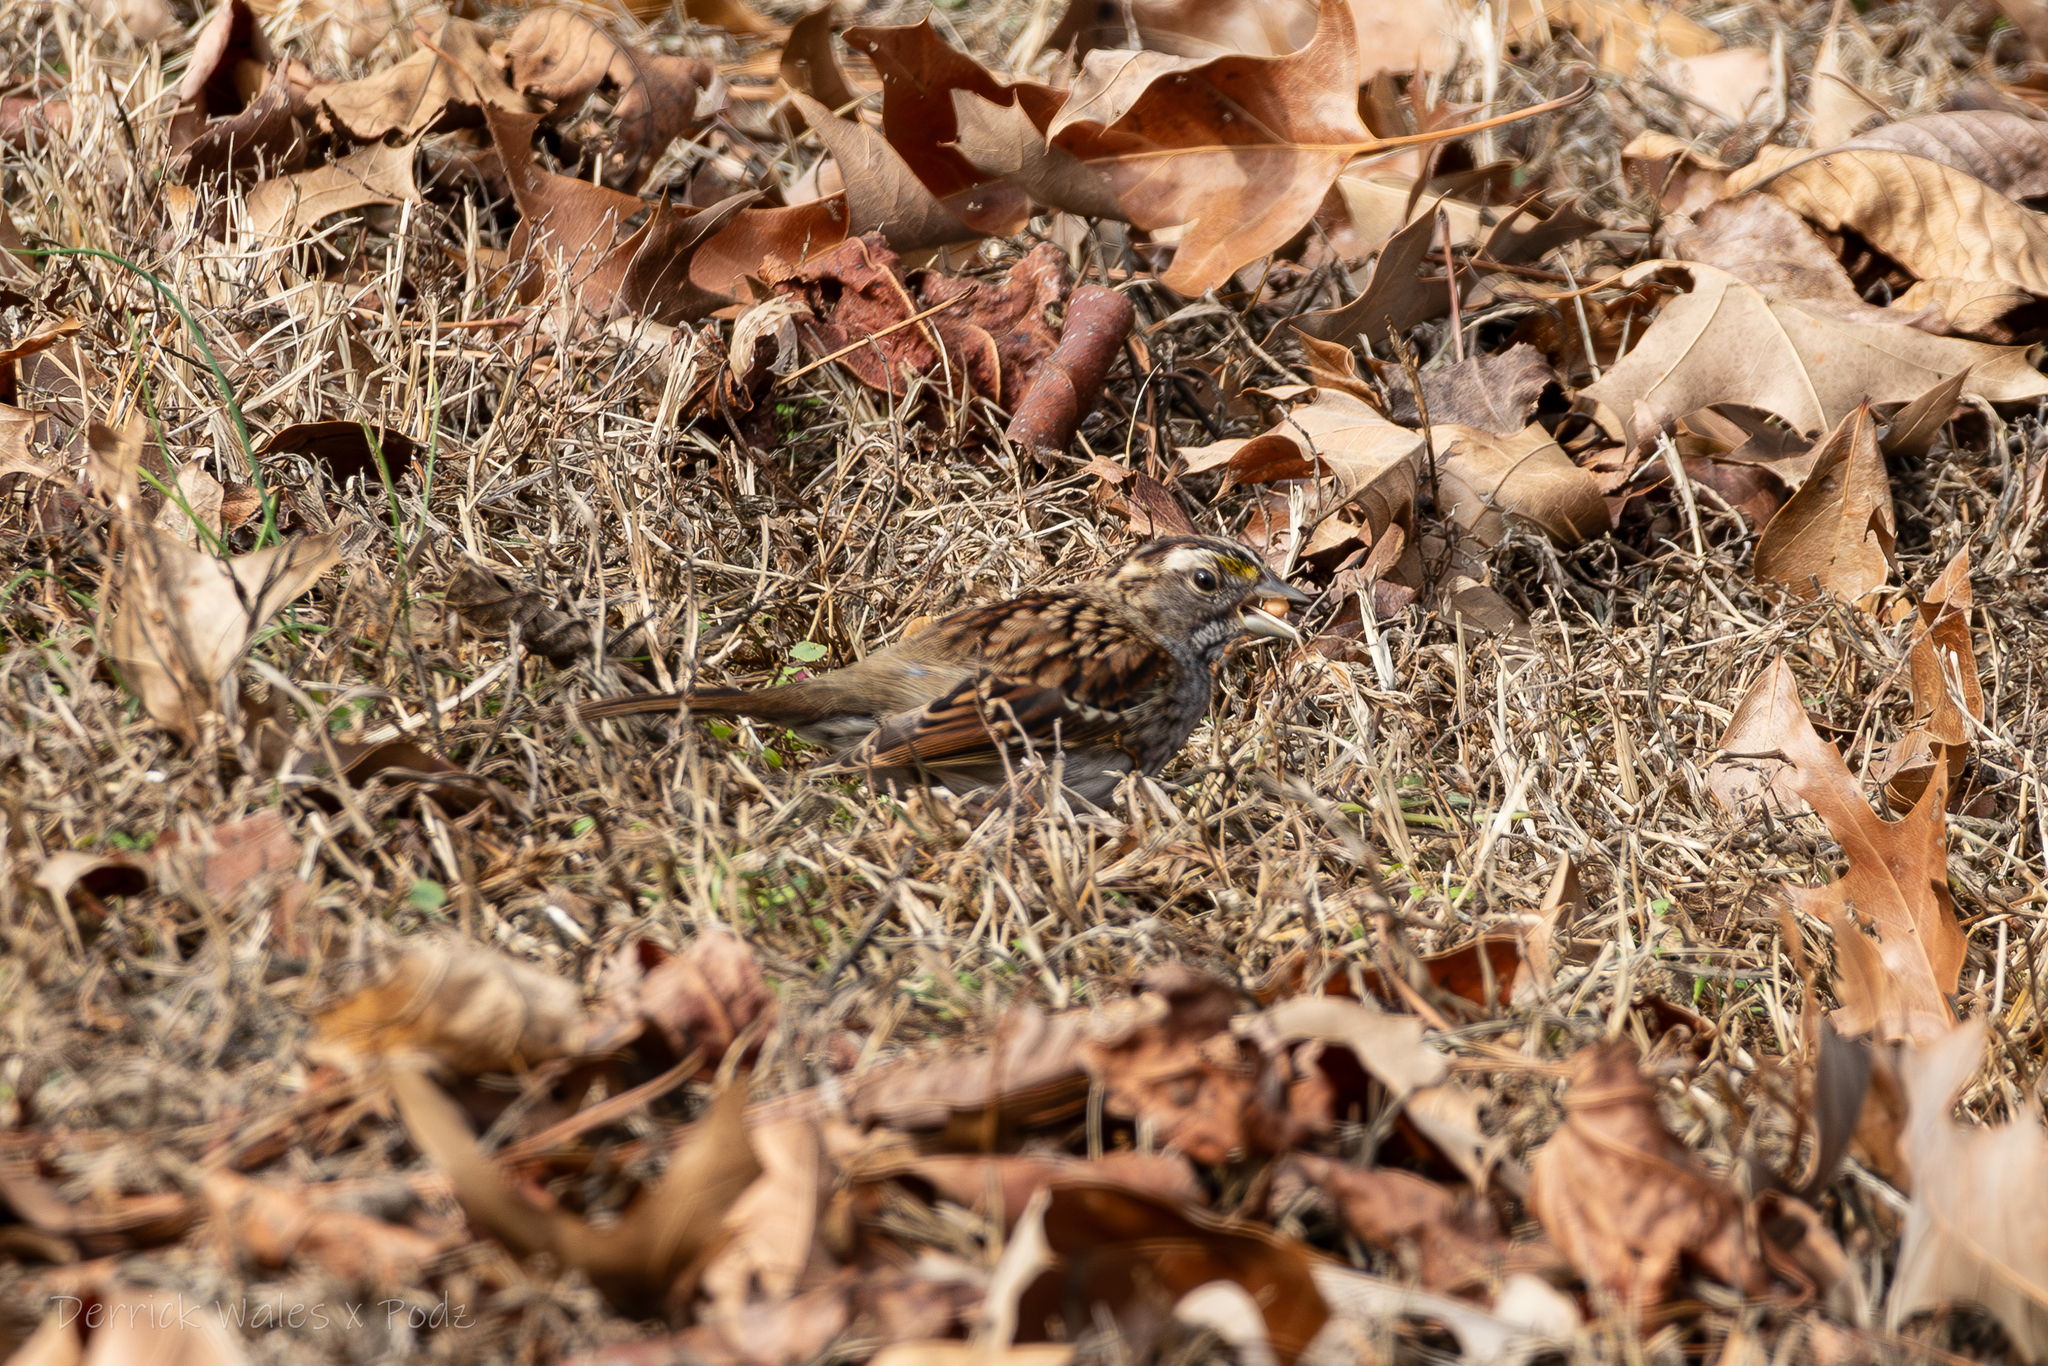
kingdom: Animalia
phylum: Chordata
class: Aves
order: Passeriformes
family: Passerellidae
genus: Zonotrichia
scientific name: Zonotrichia albicollis
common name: White-throated sparrow
